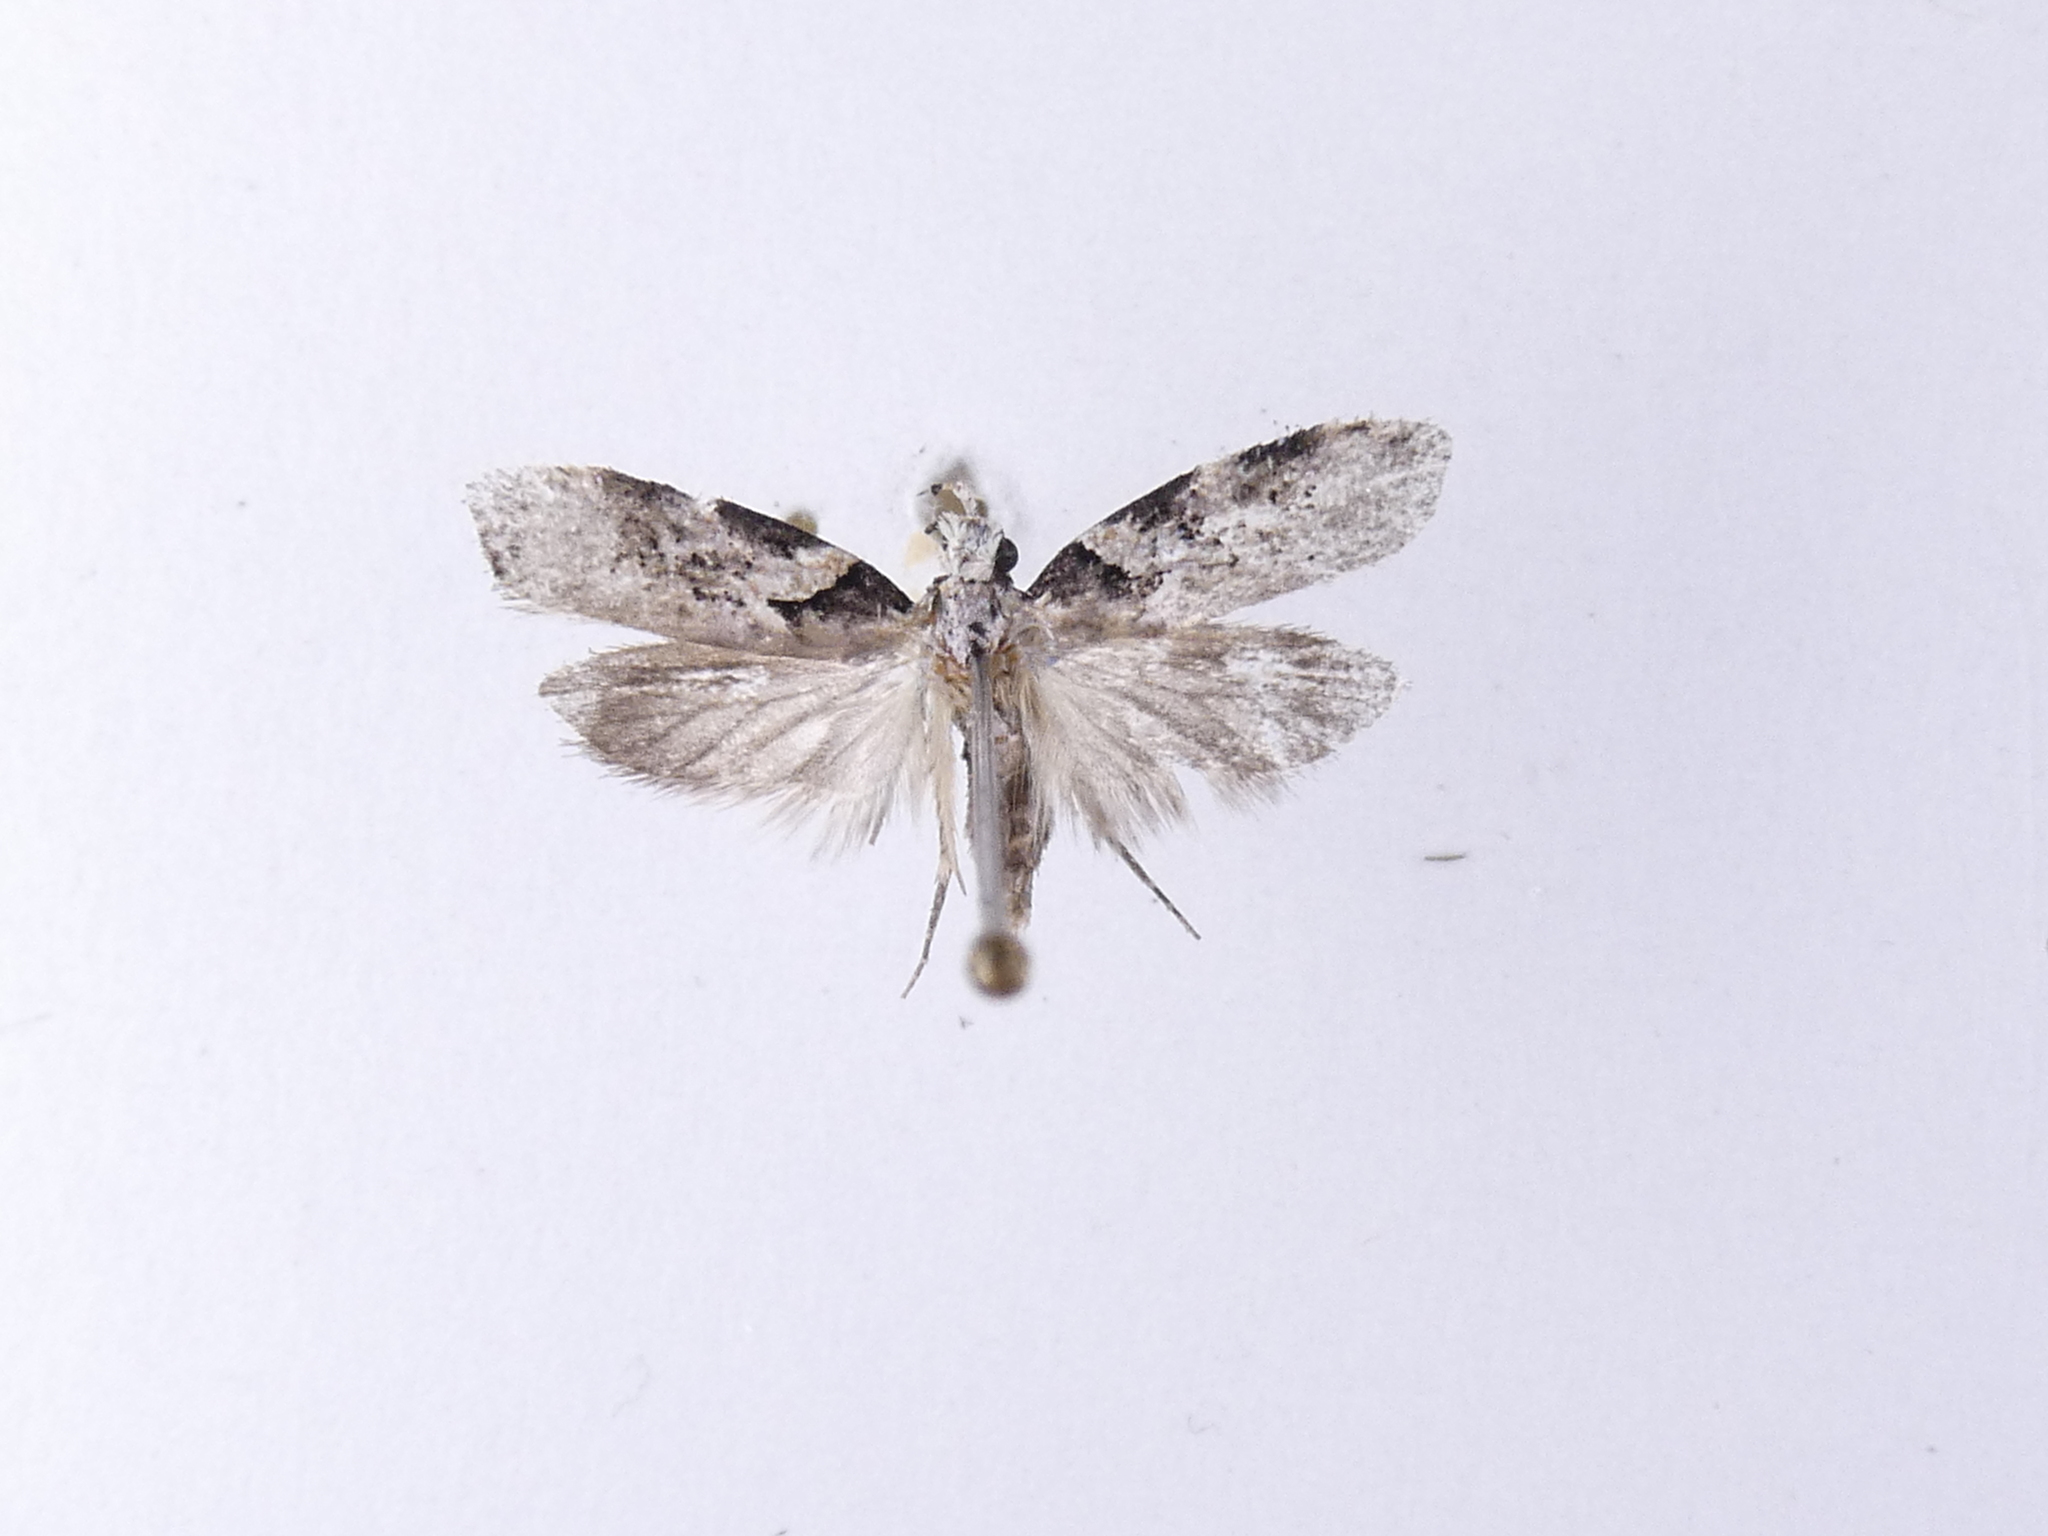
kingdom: Animalia
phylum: Arthropoda
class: Insecta
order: Lepidoptera
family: Oecophoridae
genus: Izatha
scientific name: Izatha epiphanes
